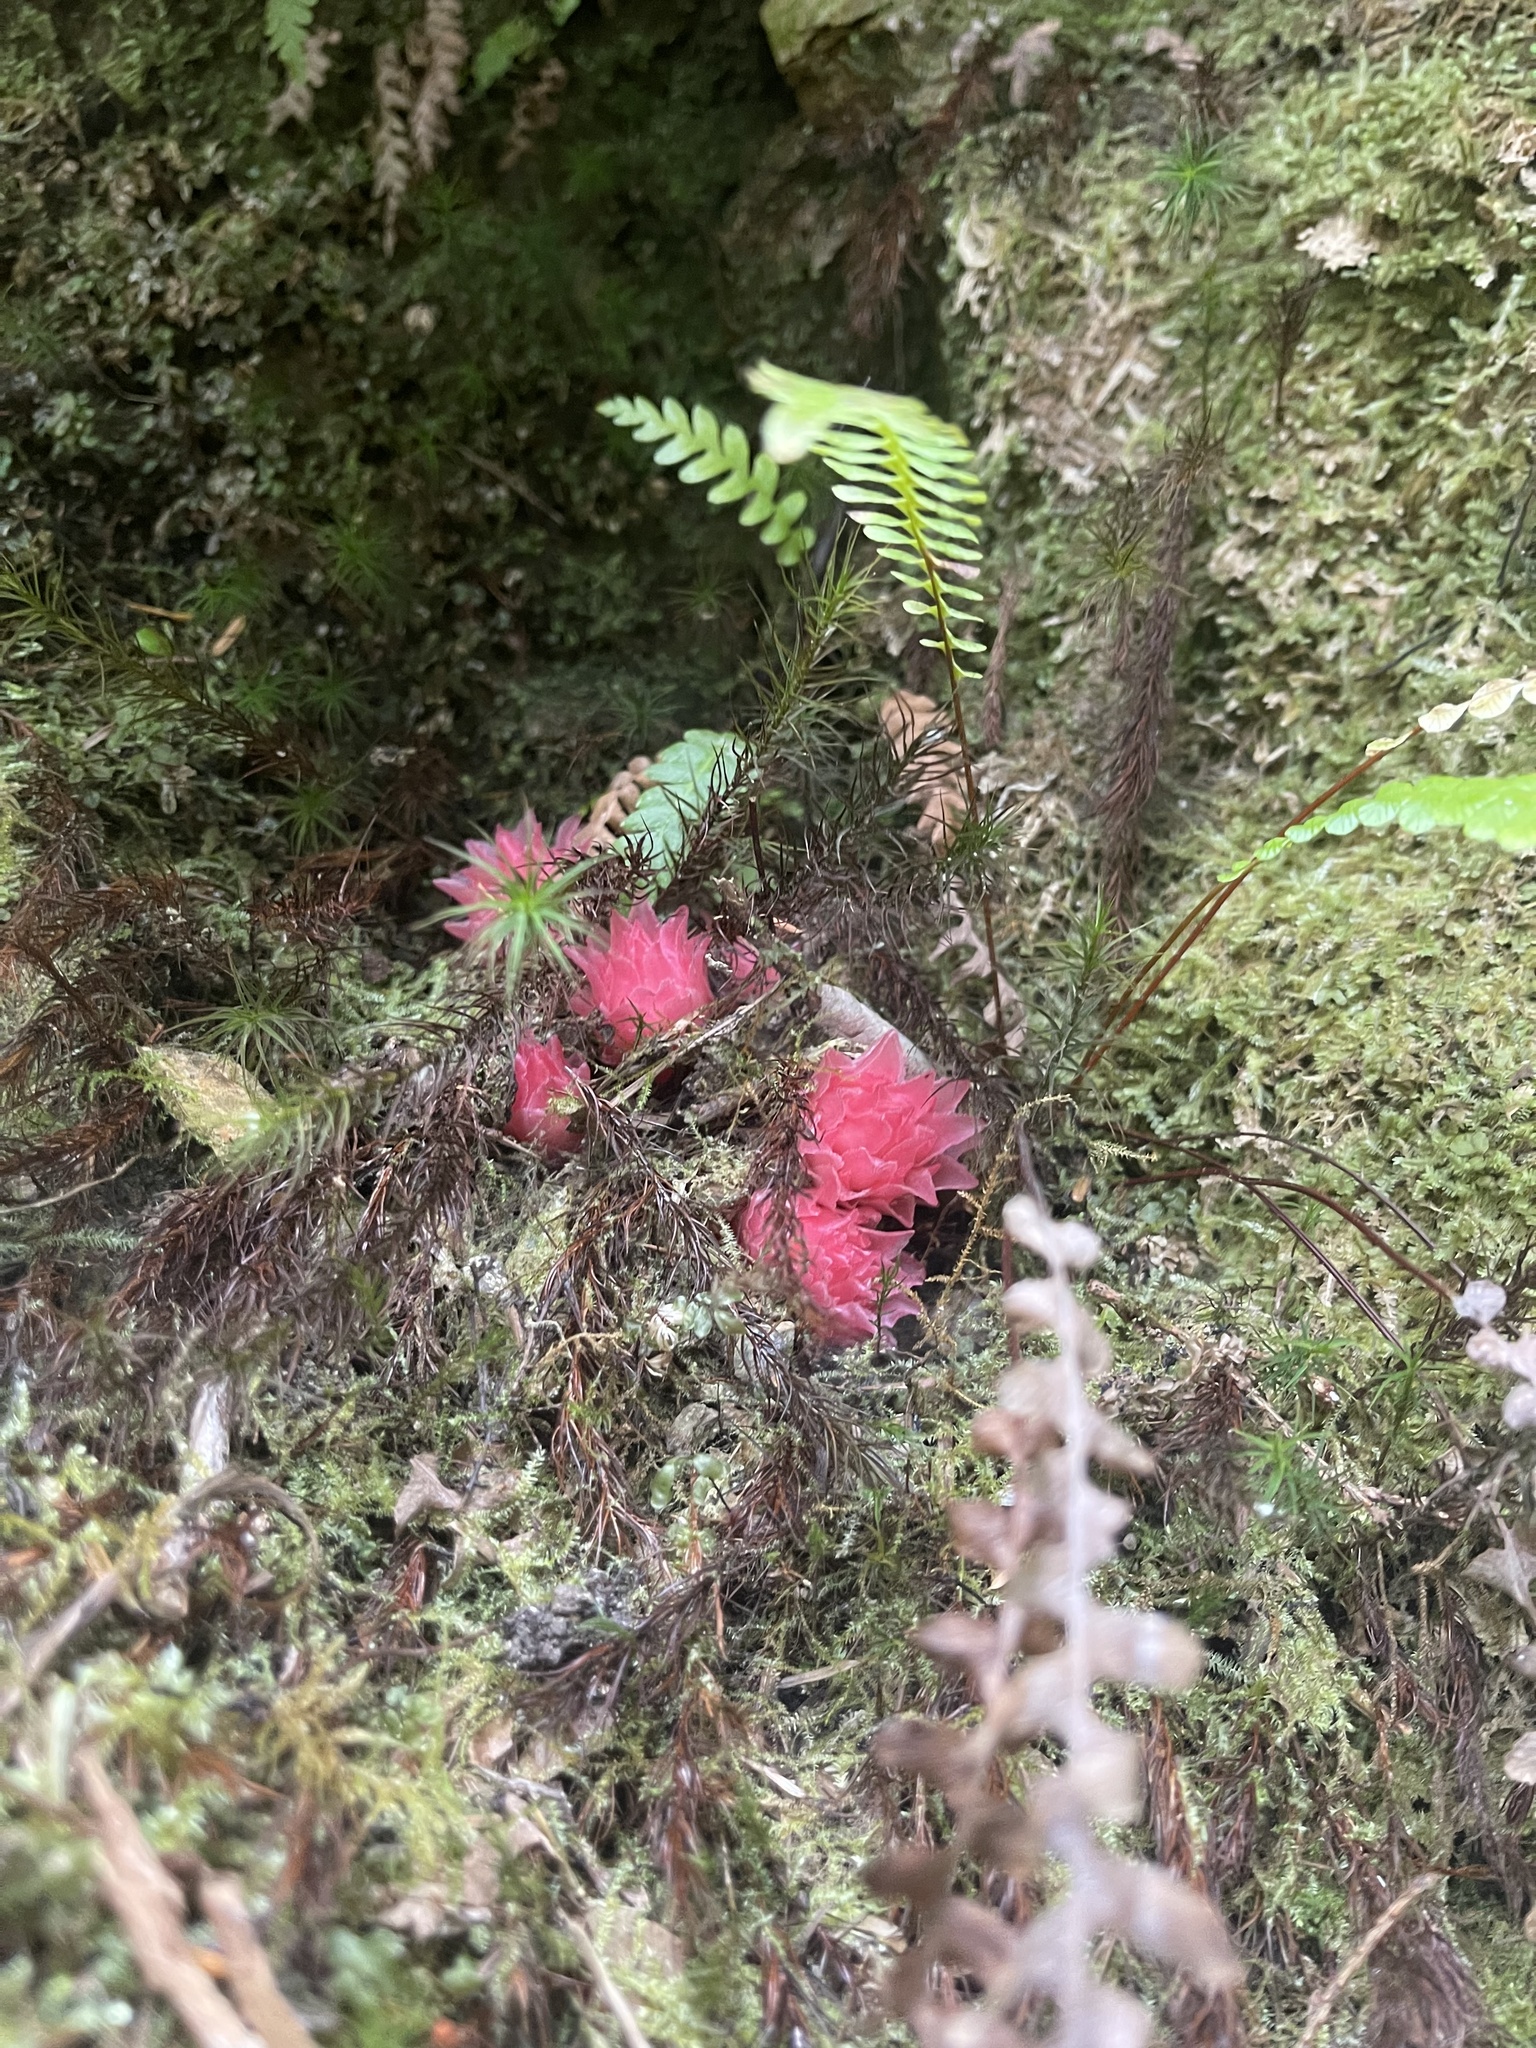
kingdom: Plantae
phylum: Tracheophyta
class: Magnoliopsida
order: Ericales
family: Ericaceae
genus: Hemitomes
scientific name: Hemitomes congestum
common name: Cone plant
